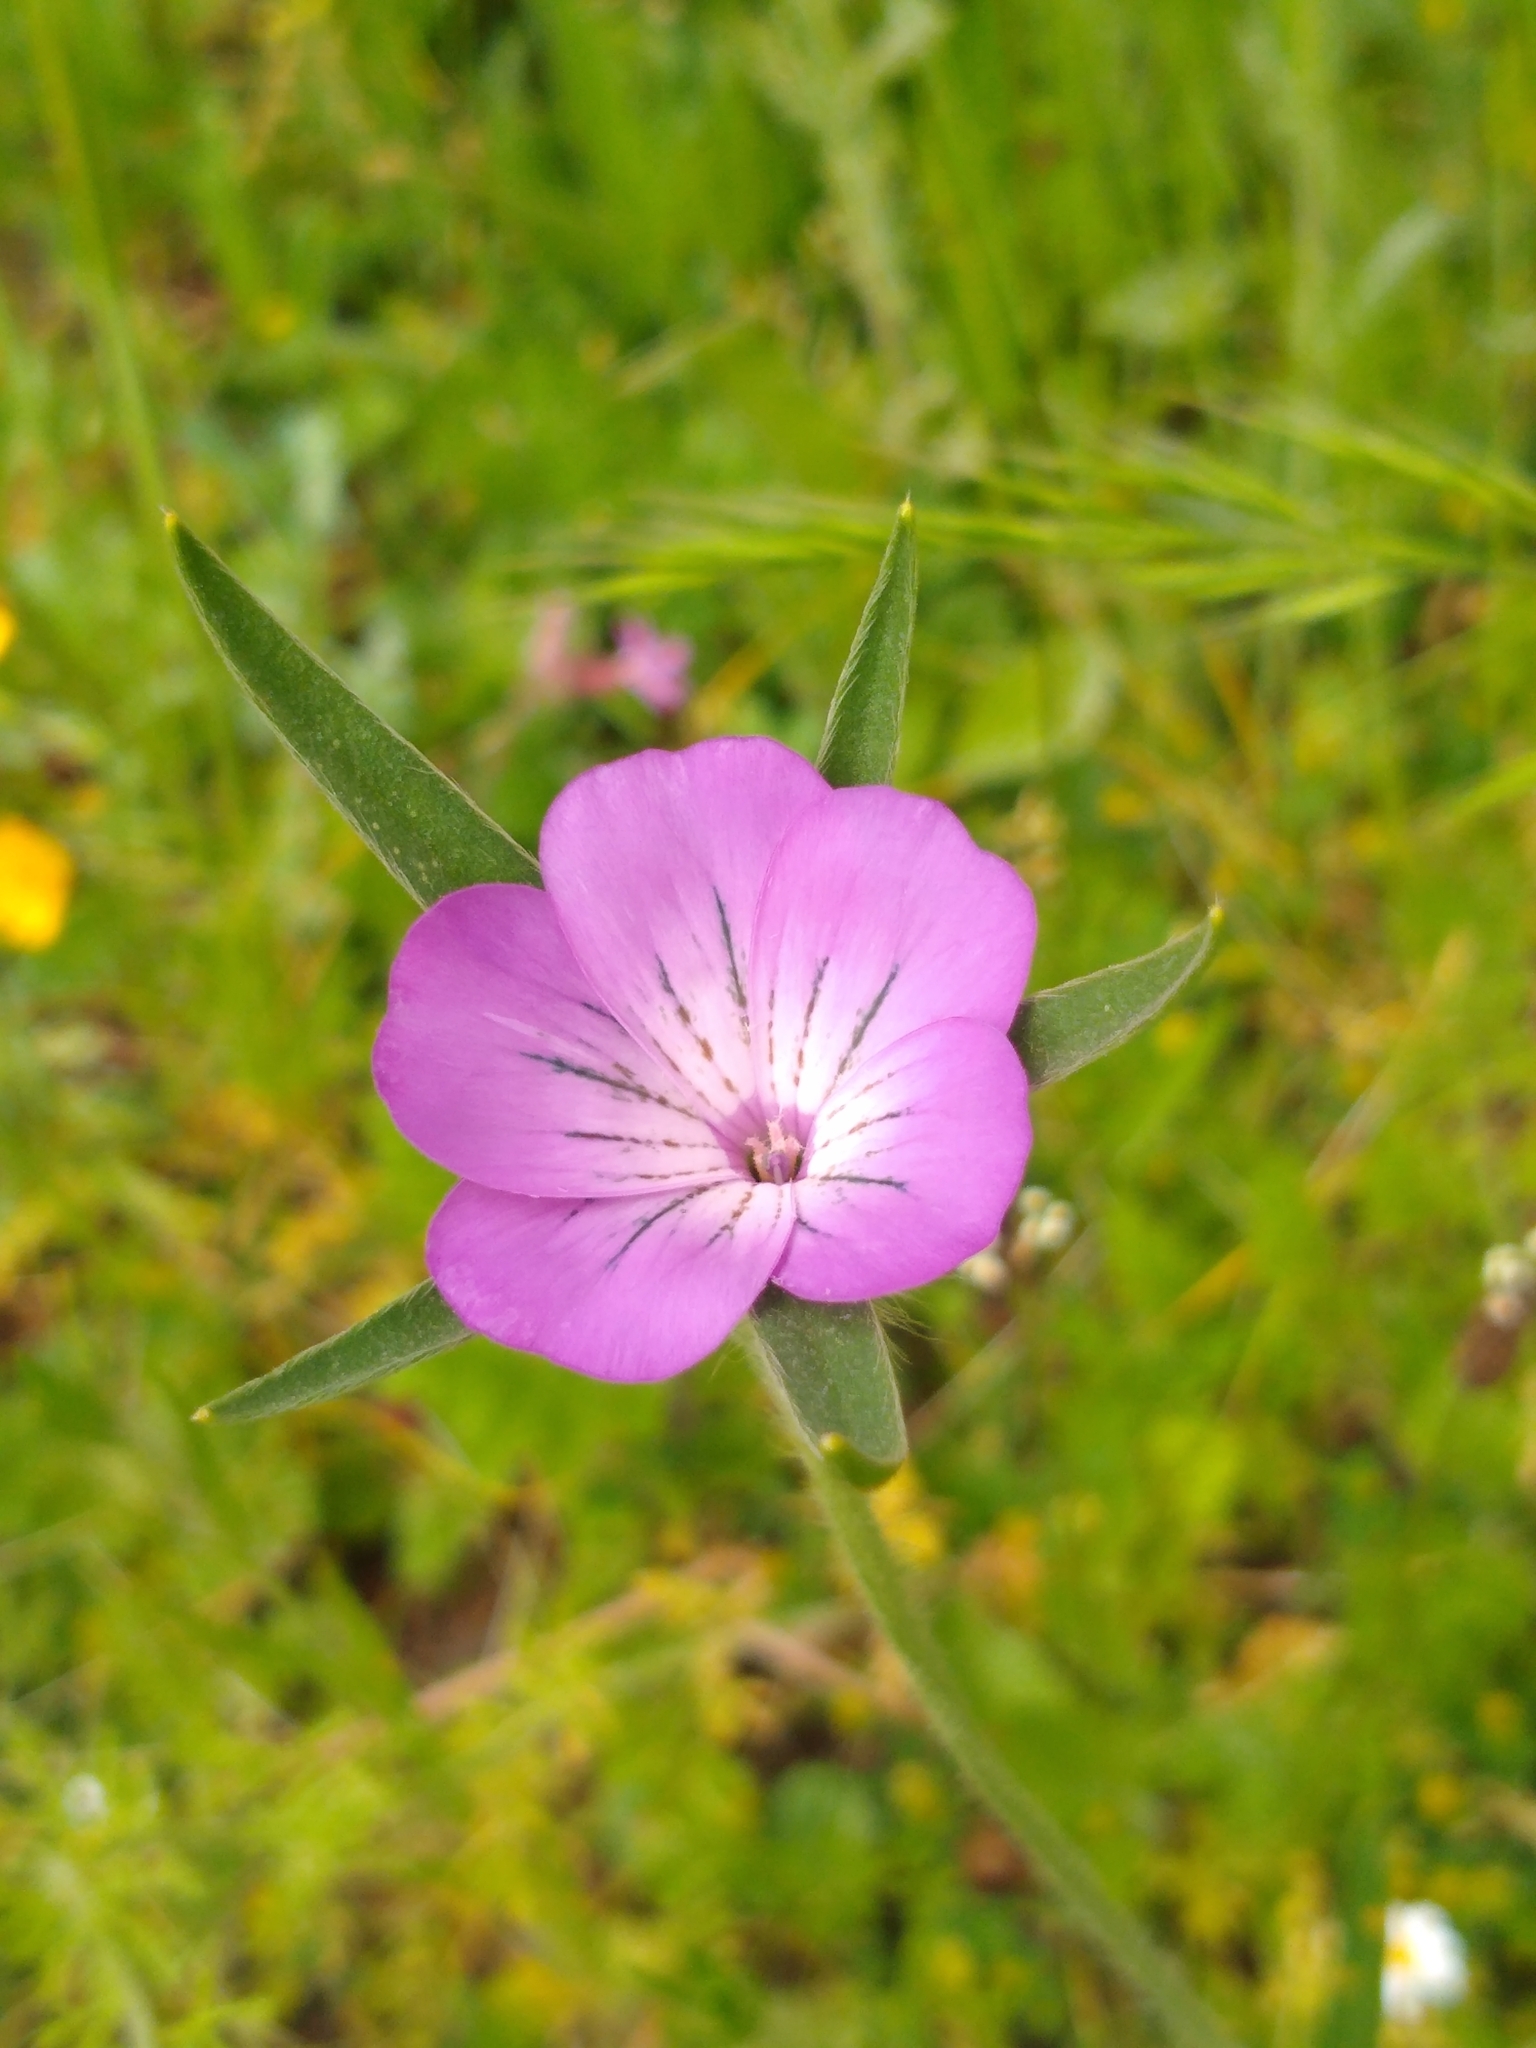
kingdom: Plantae
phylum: Tracheophyta
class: Magnoliopsida
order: Caryophyllales
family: Caryophyllaceae
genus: Agrostemma
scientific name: Agrostemma githago
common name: Common corncockle
